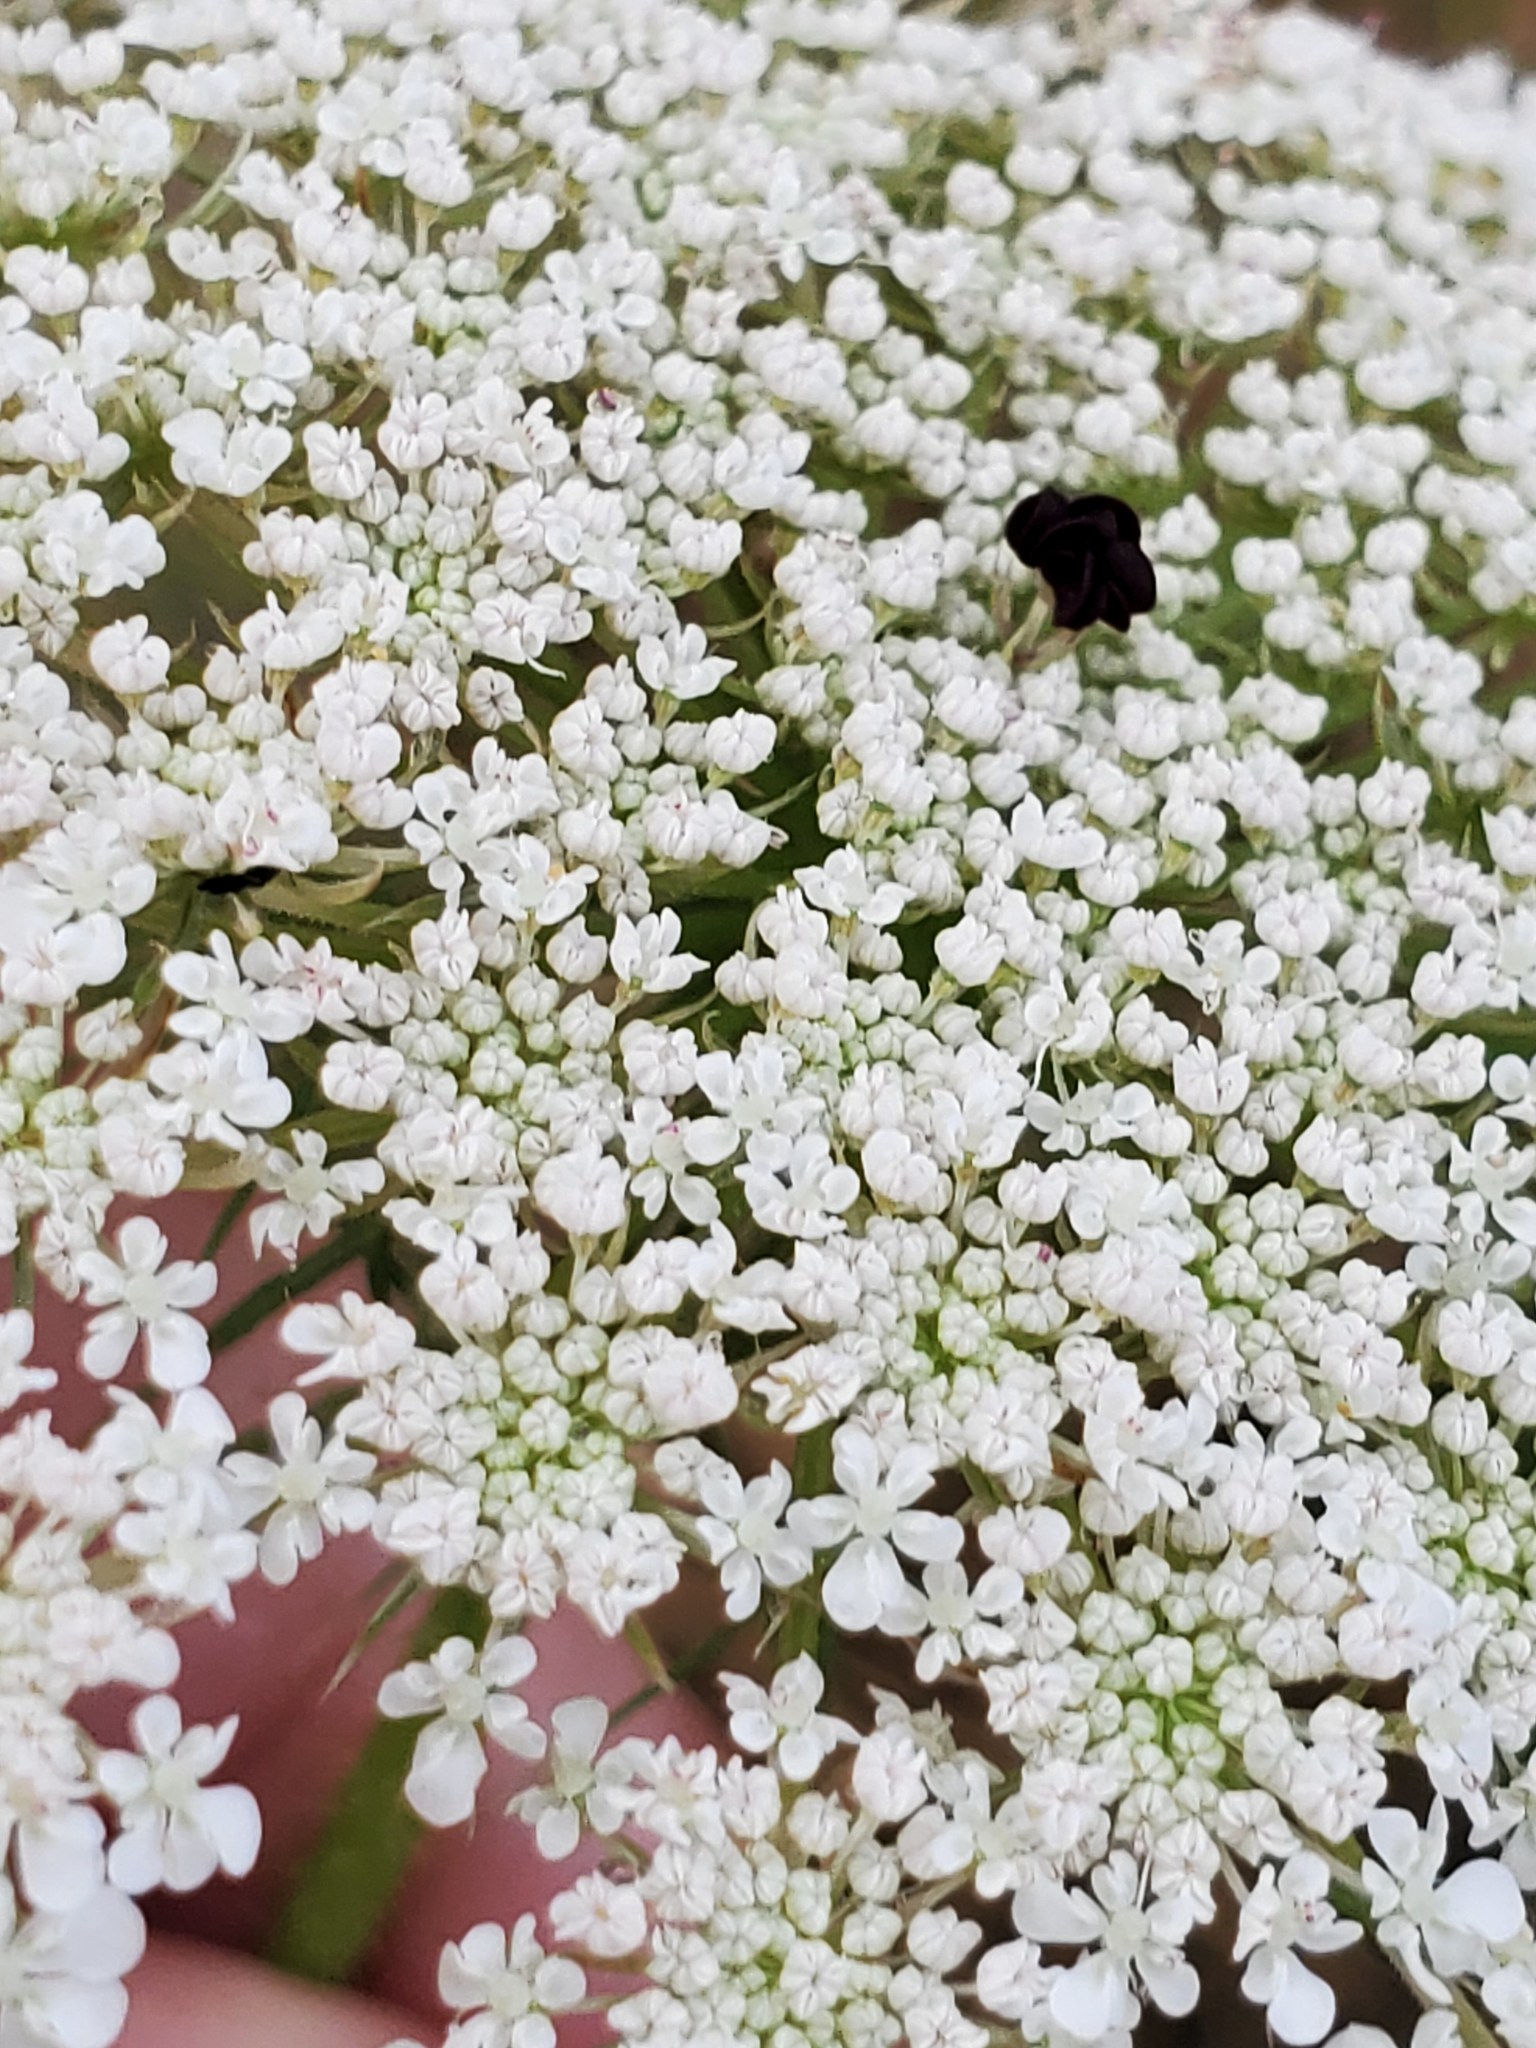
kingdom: Plantae
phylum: Tracheophyta
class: Magnoliopsida
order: Apiales
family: Apiaceae
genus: Daucus
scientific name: Daucus carota
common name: Wild carrot
